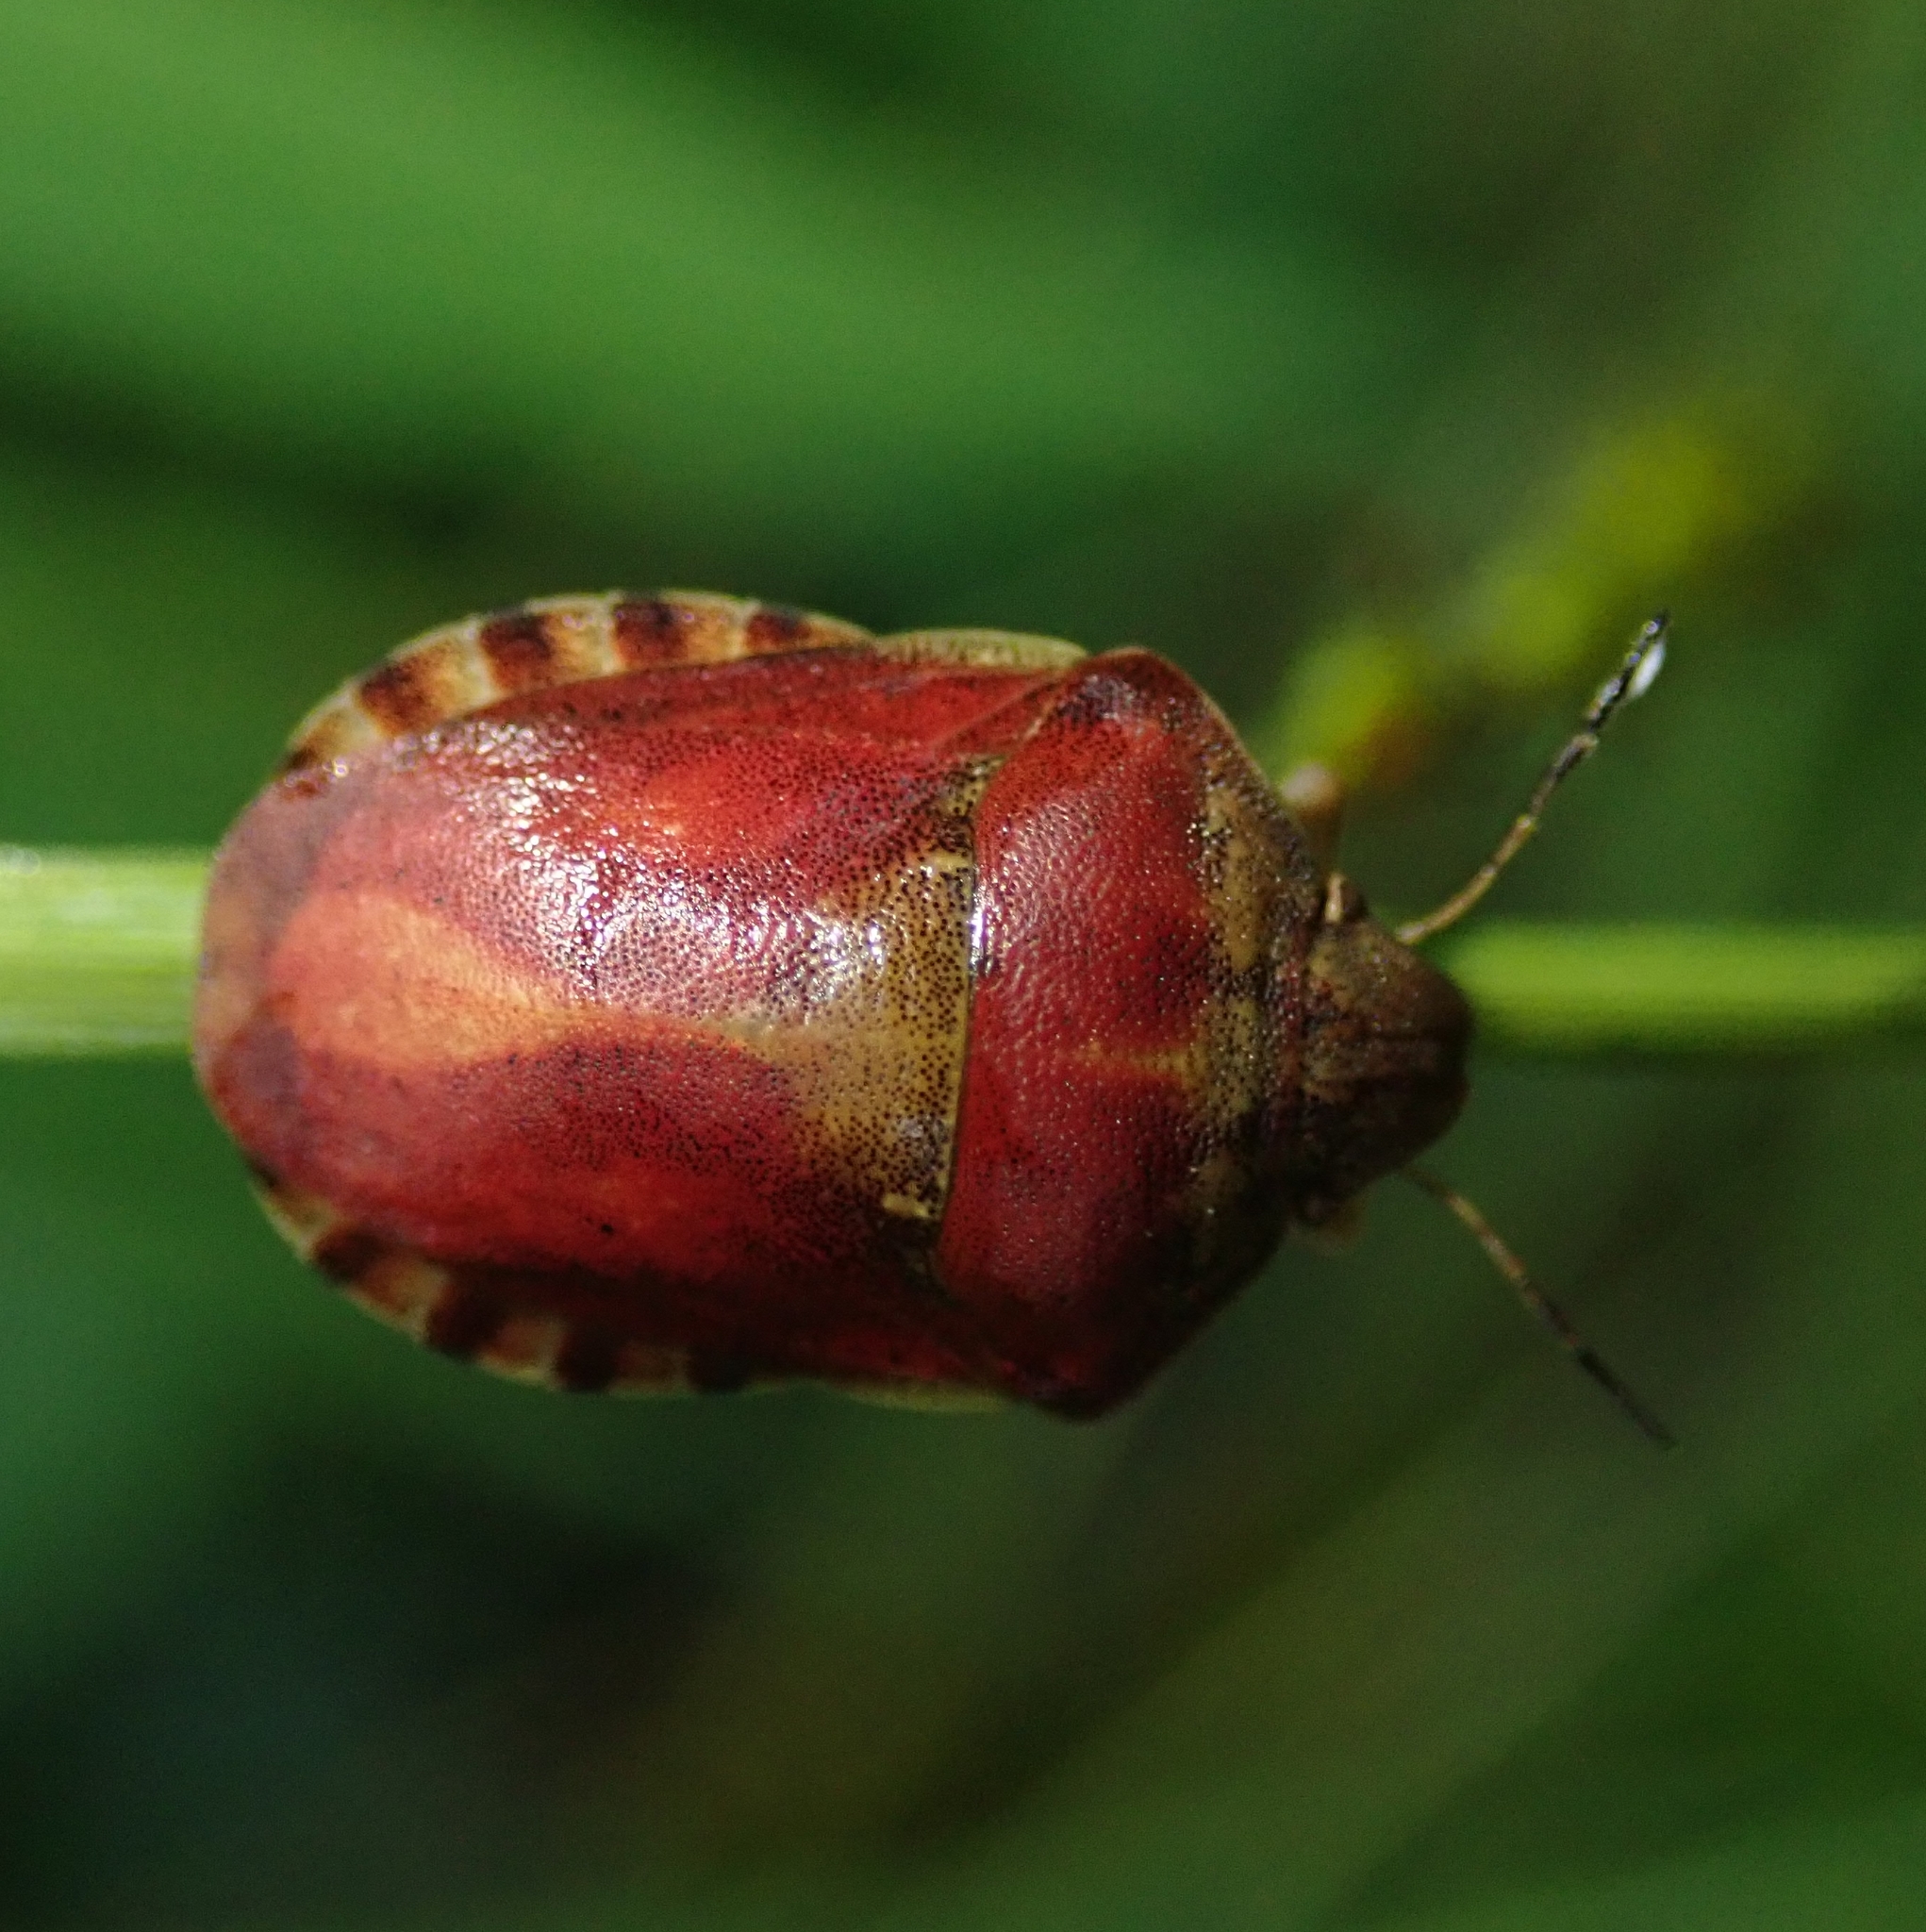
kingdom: Animalia
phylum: Arthropoda
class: Insecta
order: Hemiptera
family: Scutelleridae
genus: Eurygaster
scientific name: Eurygaster maura
